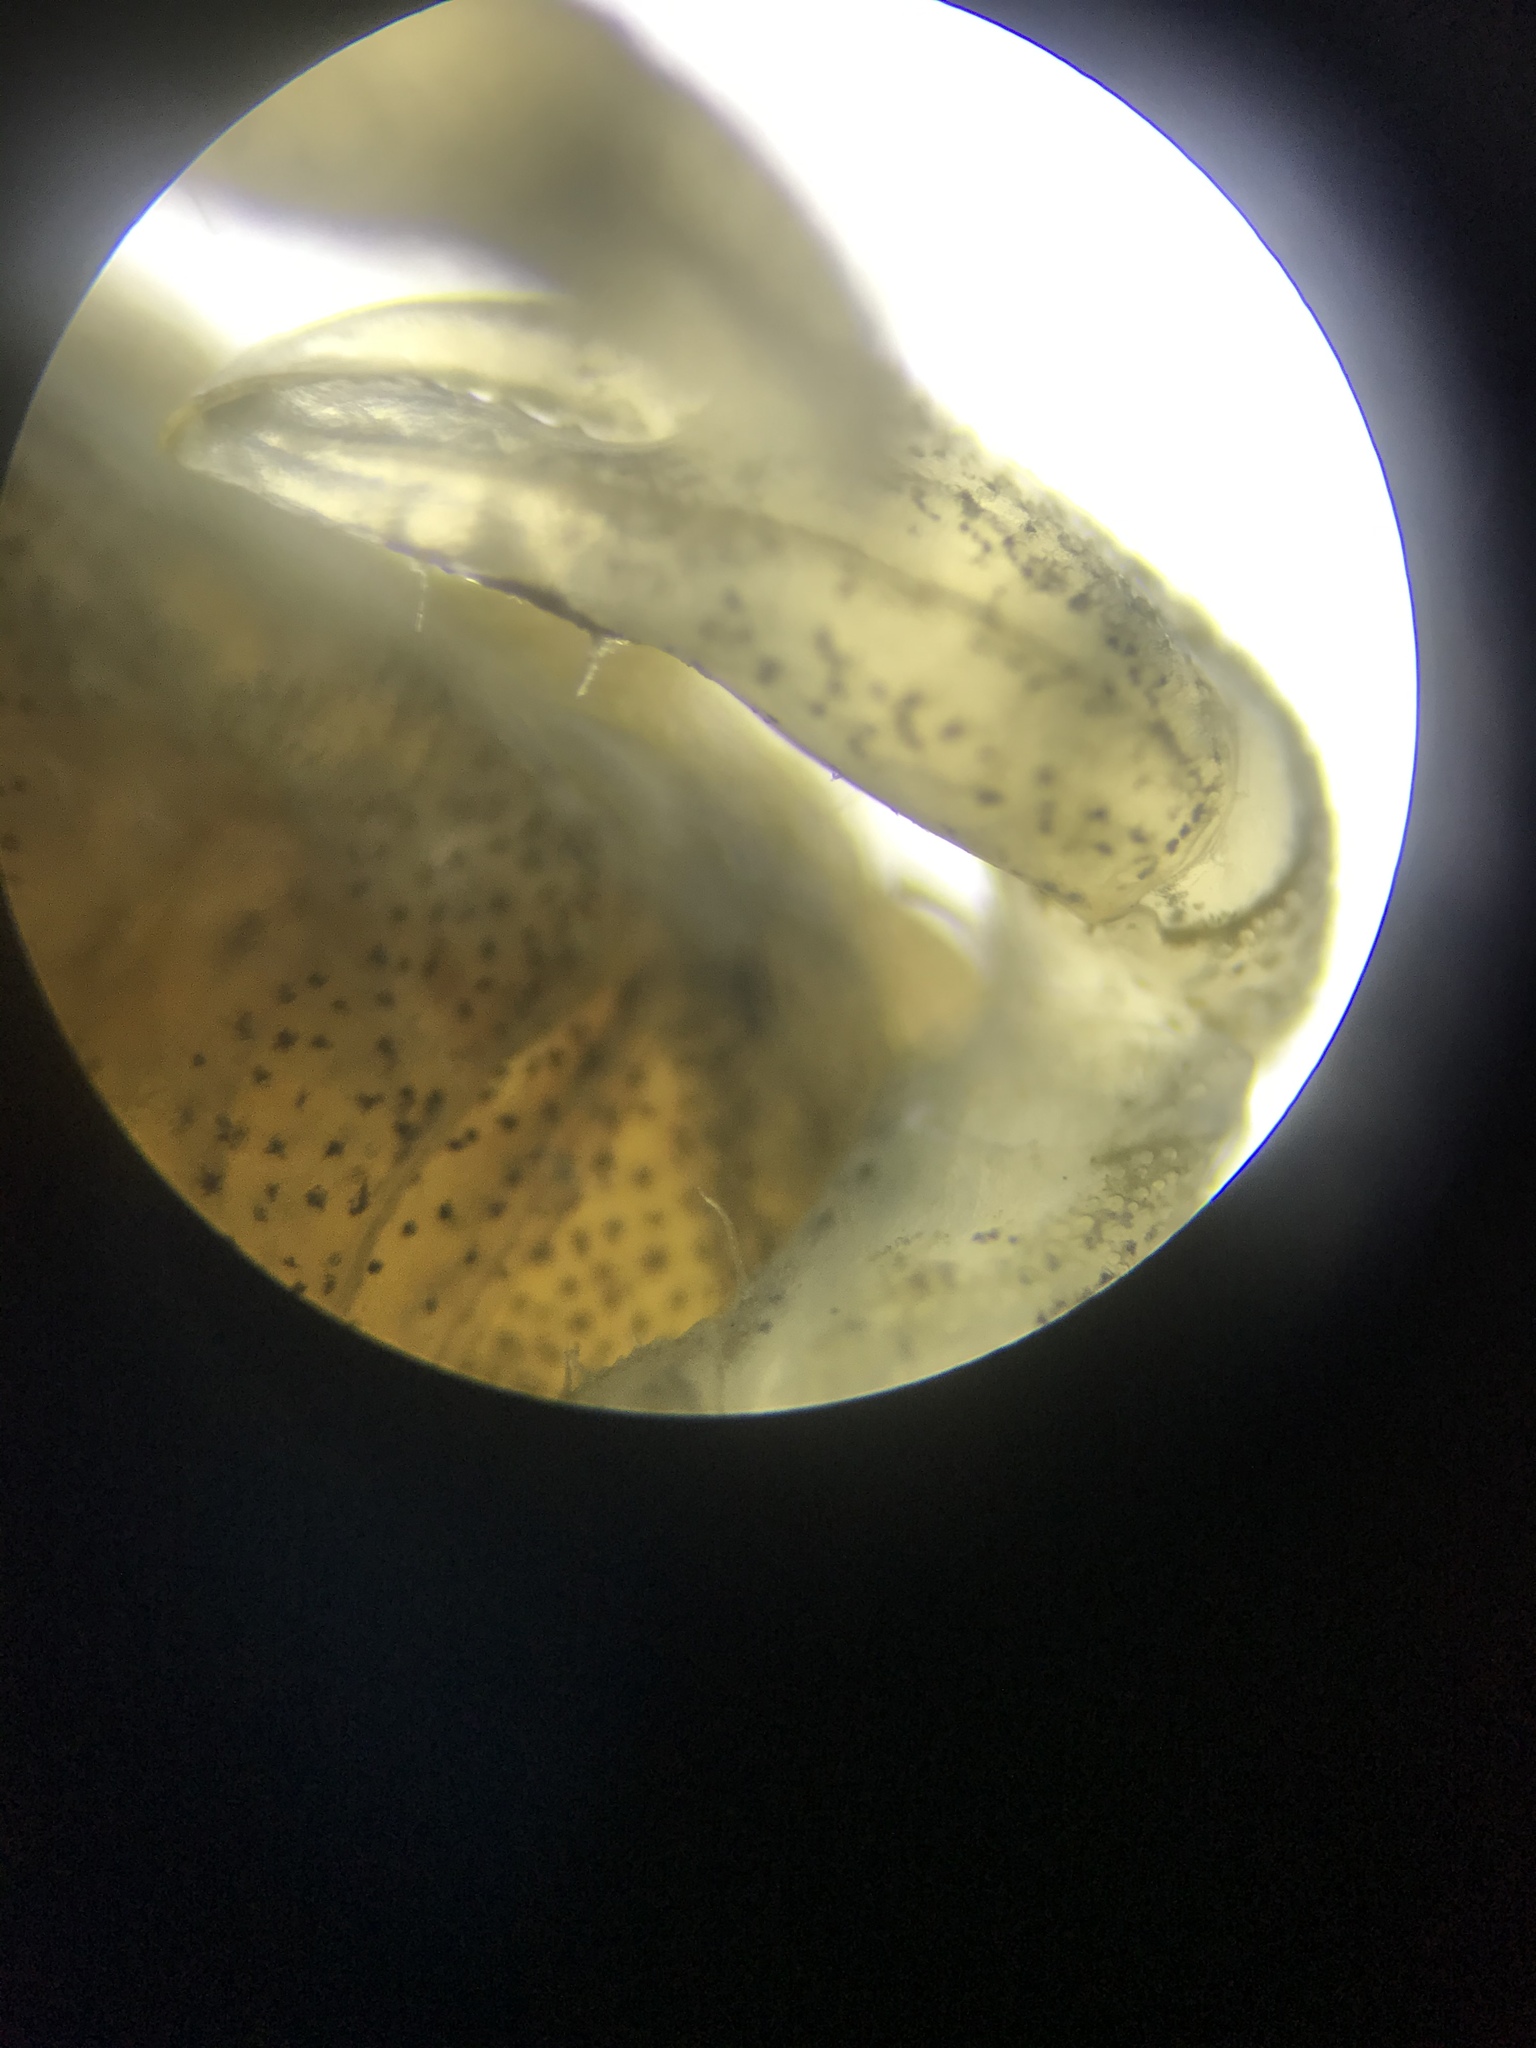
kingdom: Animalia
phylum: Arthropoda
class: Malacostraca
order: Decapoda
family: Varunidae
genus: Hemigrapsus
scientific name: Hemigrapsus oregonensis
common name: Yellow shore crab
